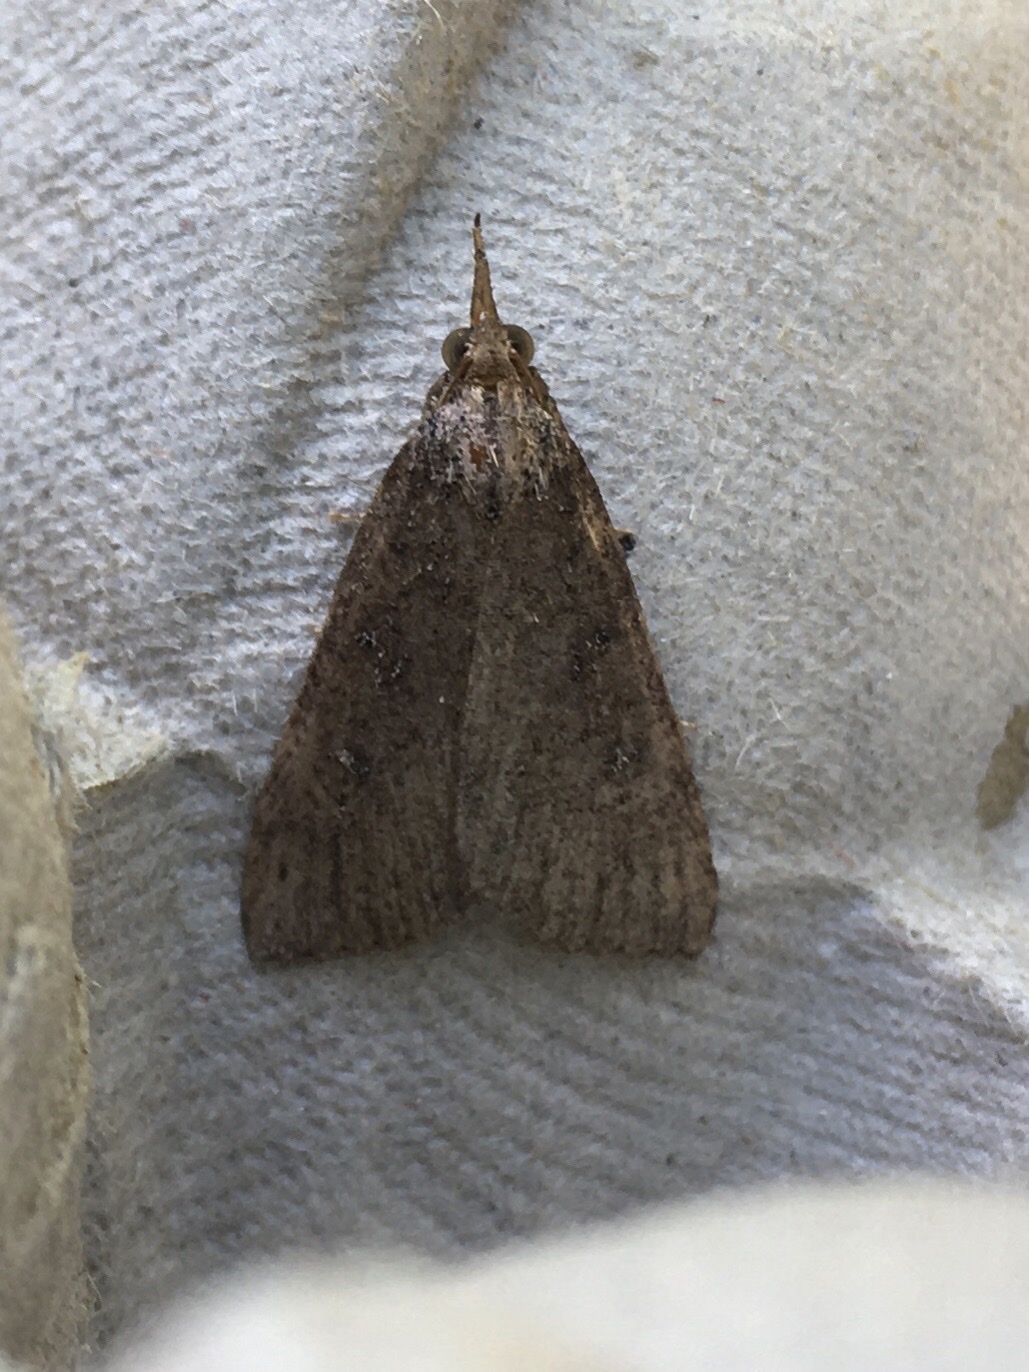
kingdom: Animalia
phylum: Arthropoda
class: Insecta
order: Lepidoptera
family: Erebidae
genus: Hypena
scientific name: Hypena humuli
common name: Hop vine snout
